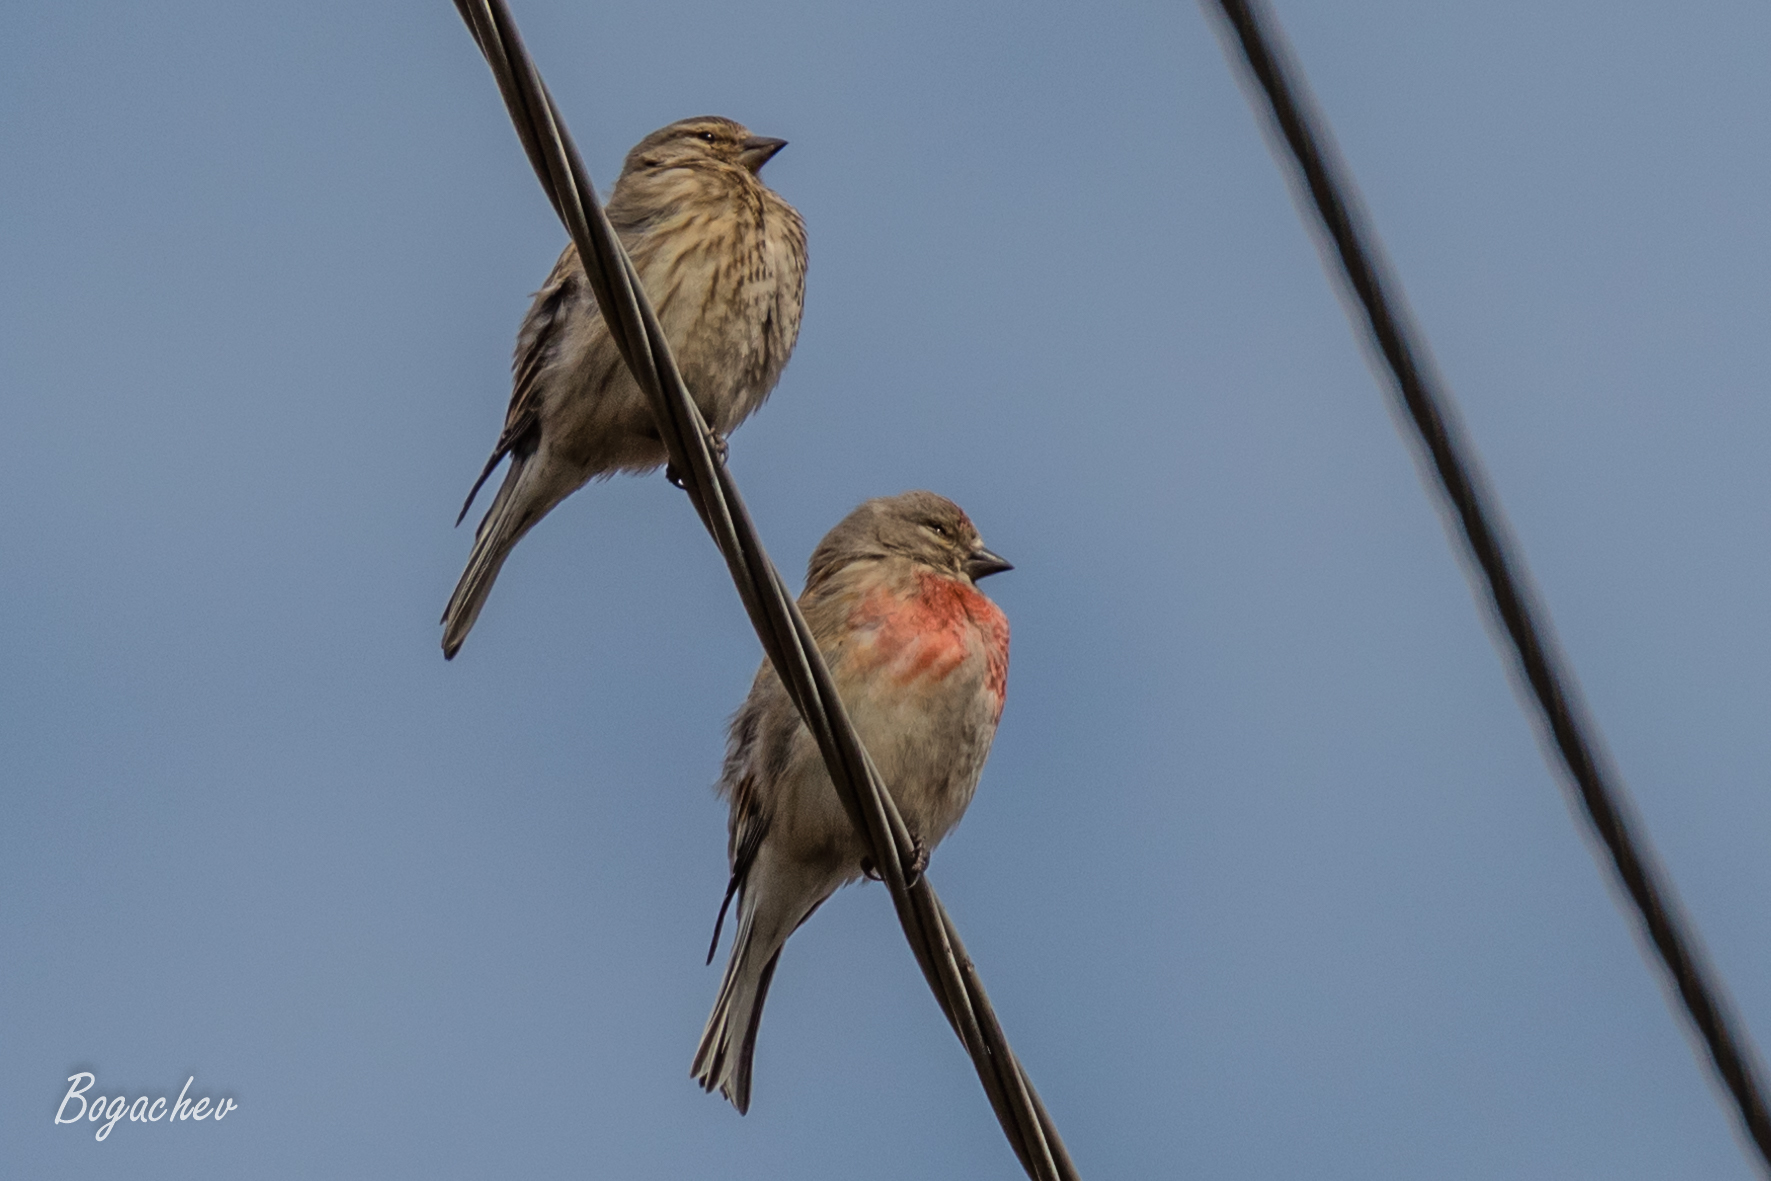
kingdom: Animalia
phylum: Chordata
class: Aves
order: Passeriformes
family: Fringillidae
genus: Linaria
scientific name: Linaria cannabina
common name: Common linnet
